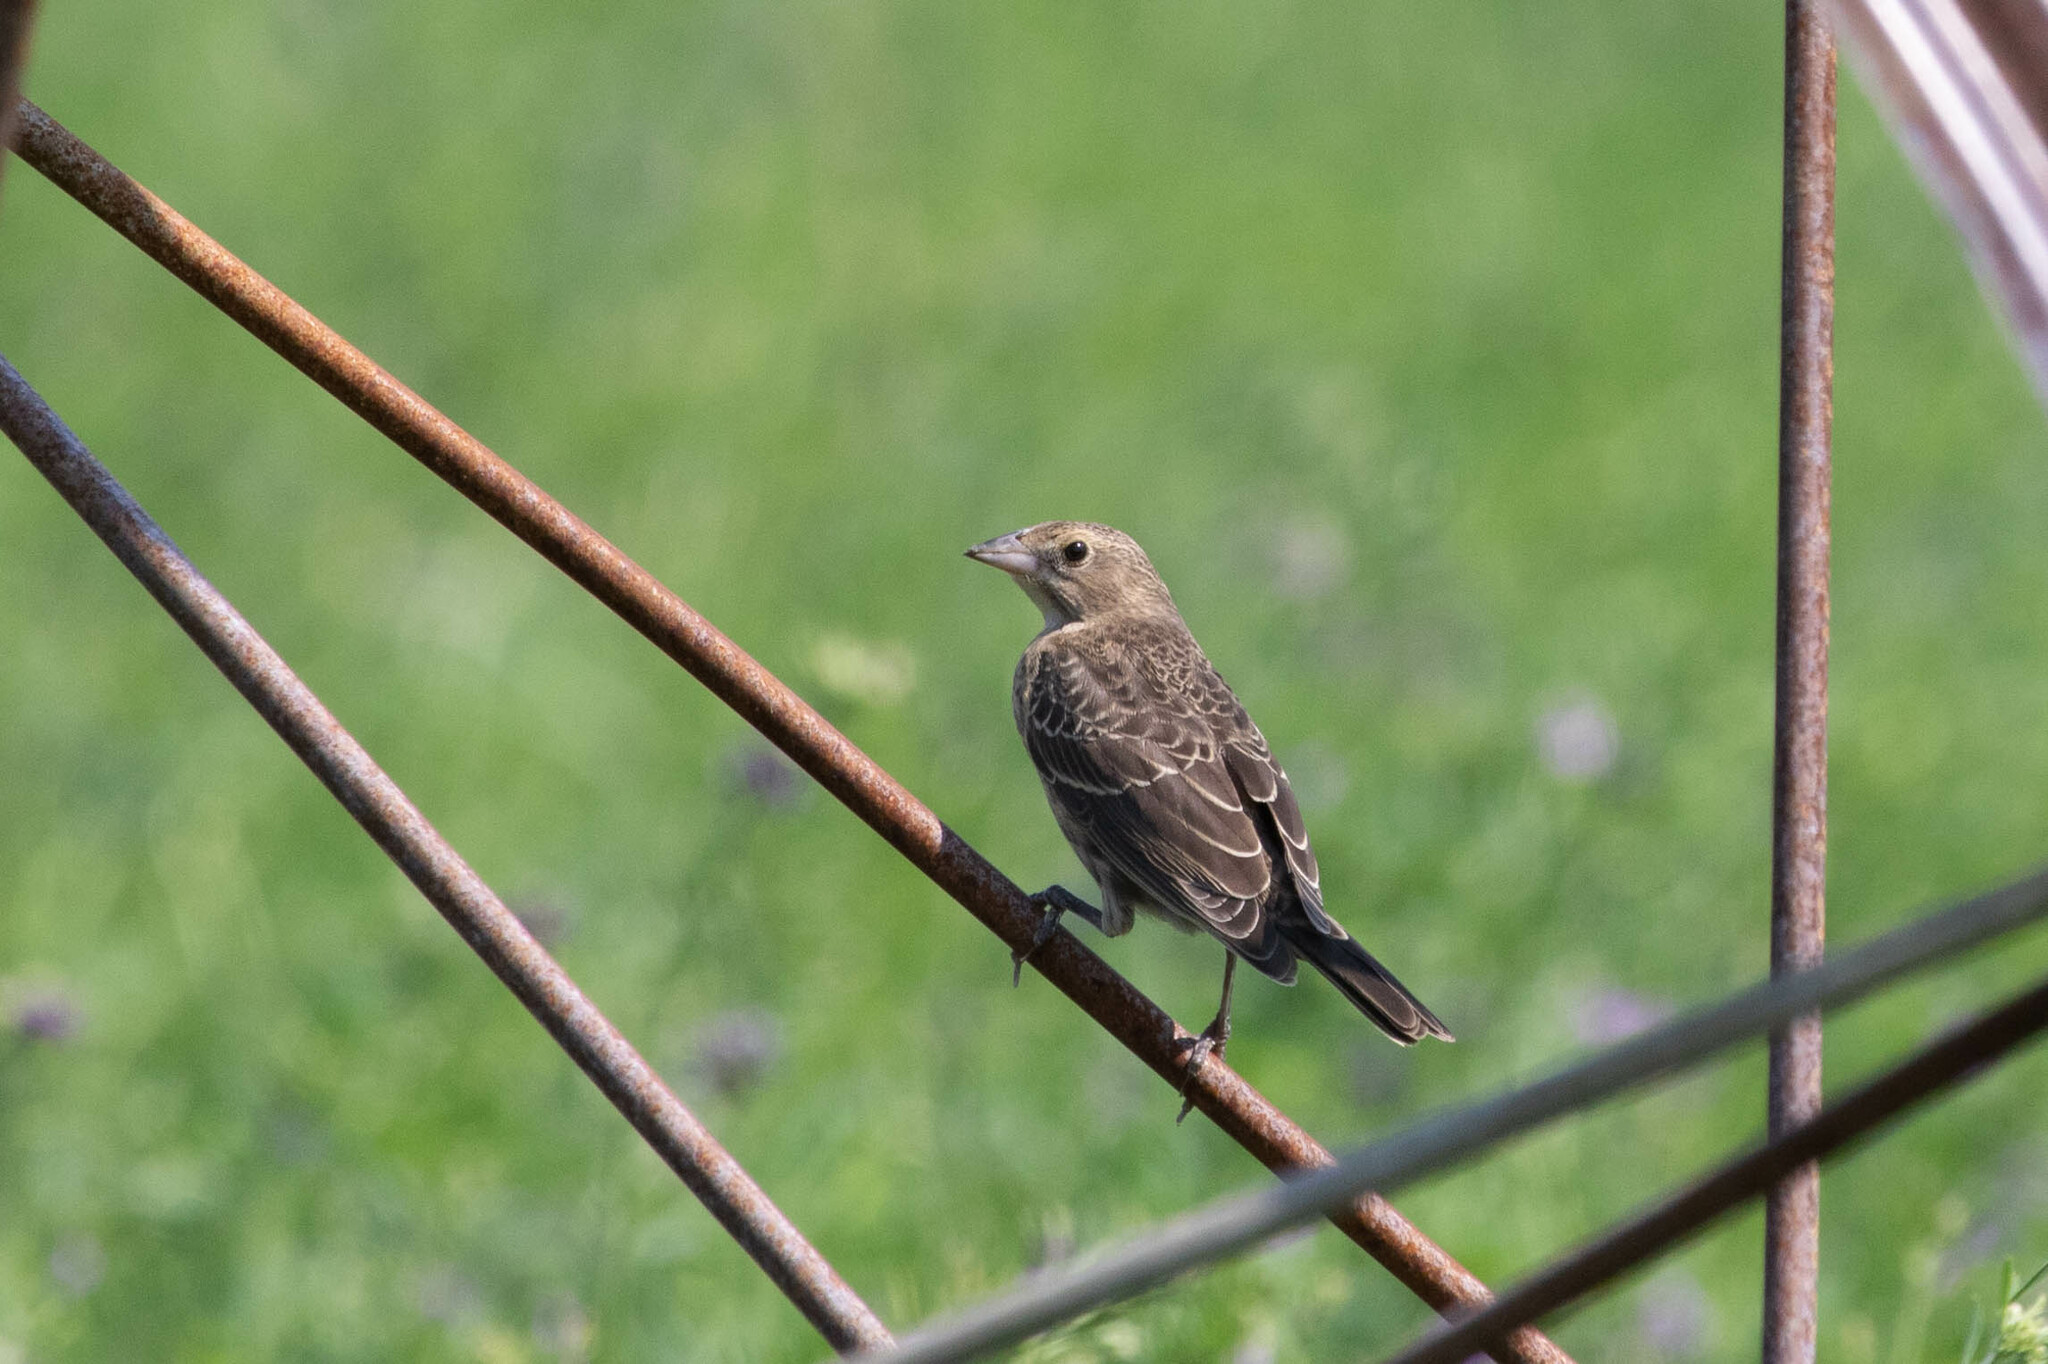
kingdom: Animalia
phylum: Chordata
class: Aves
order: Passeriformes
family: Icteridae
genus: Molothrus
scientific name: Molothrus ater
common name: Brown-headed cowbird
